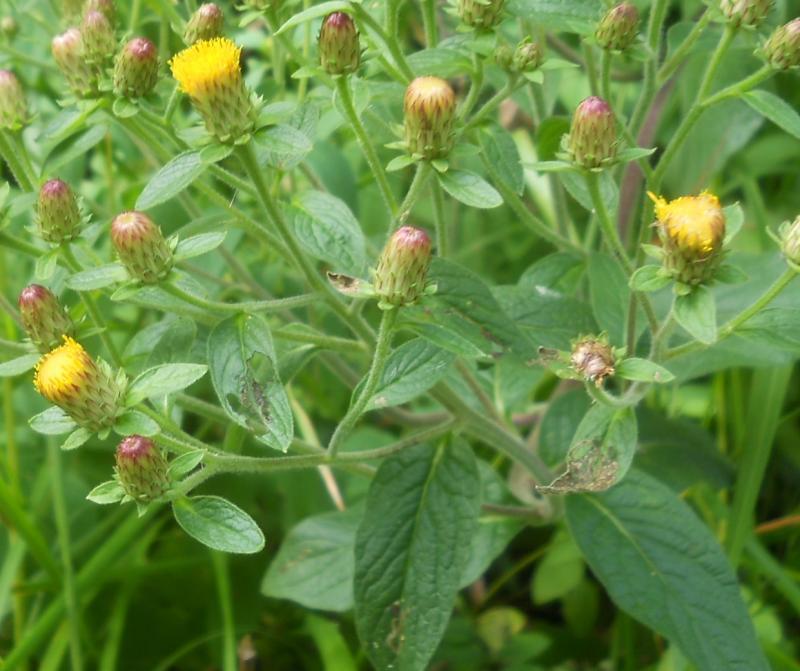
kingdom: Plantae
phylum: Tracheophyta
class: Magnoliopsida
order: Asterales
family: Asteraceae
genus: Pentanema
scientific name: Pentanema squarrosum
